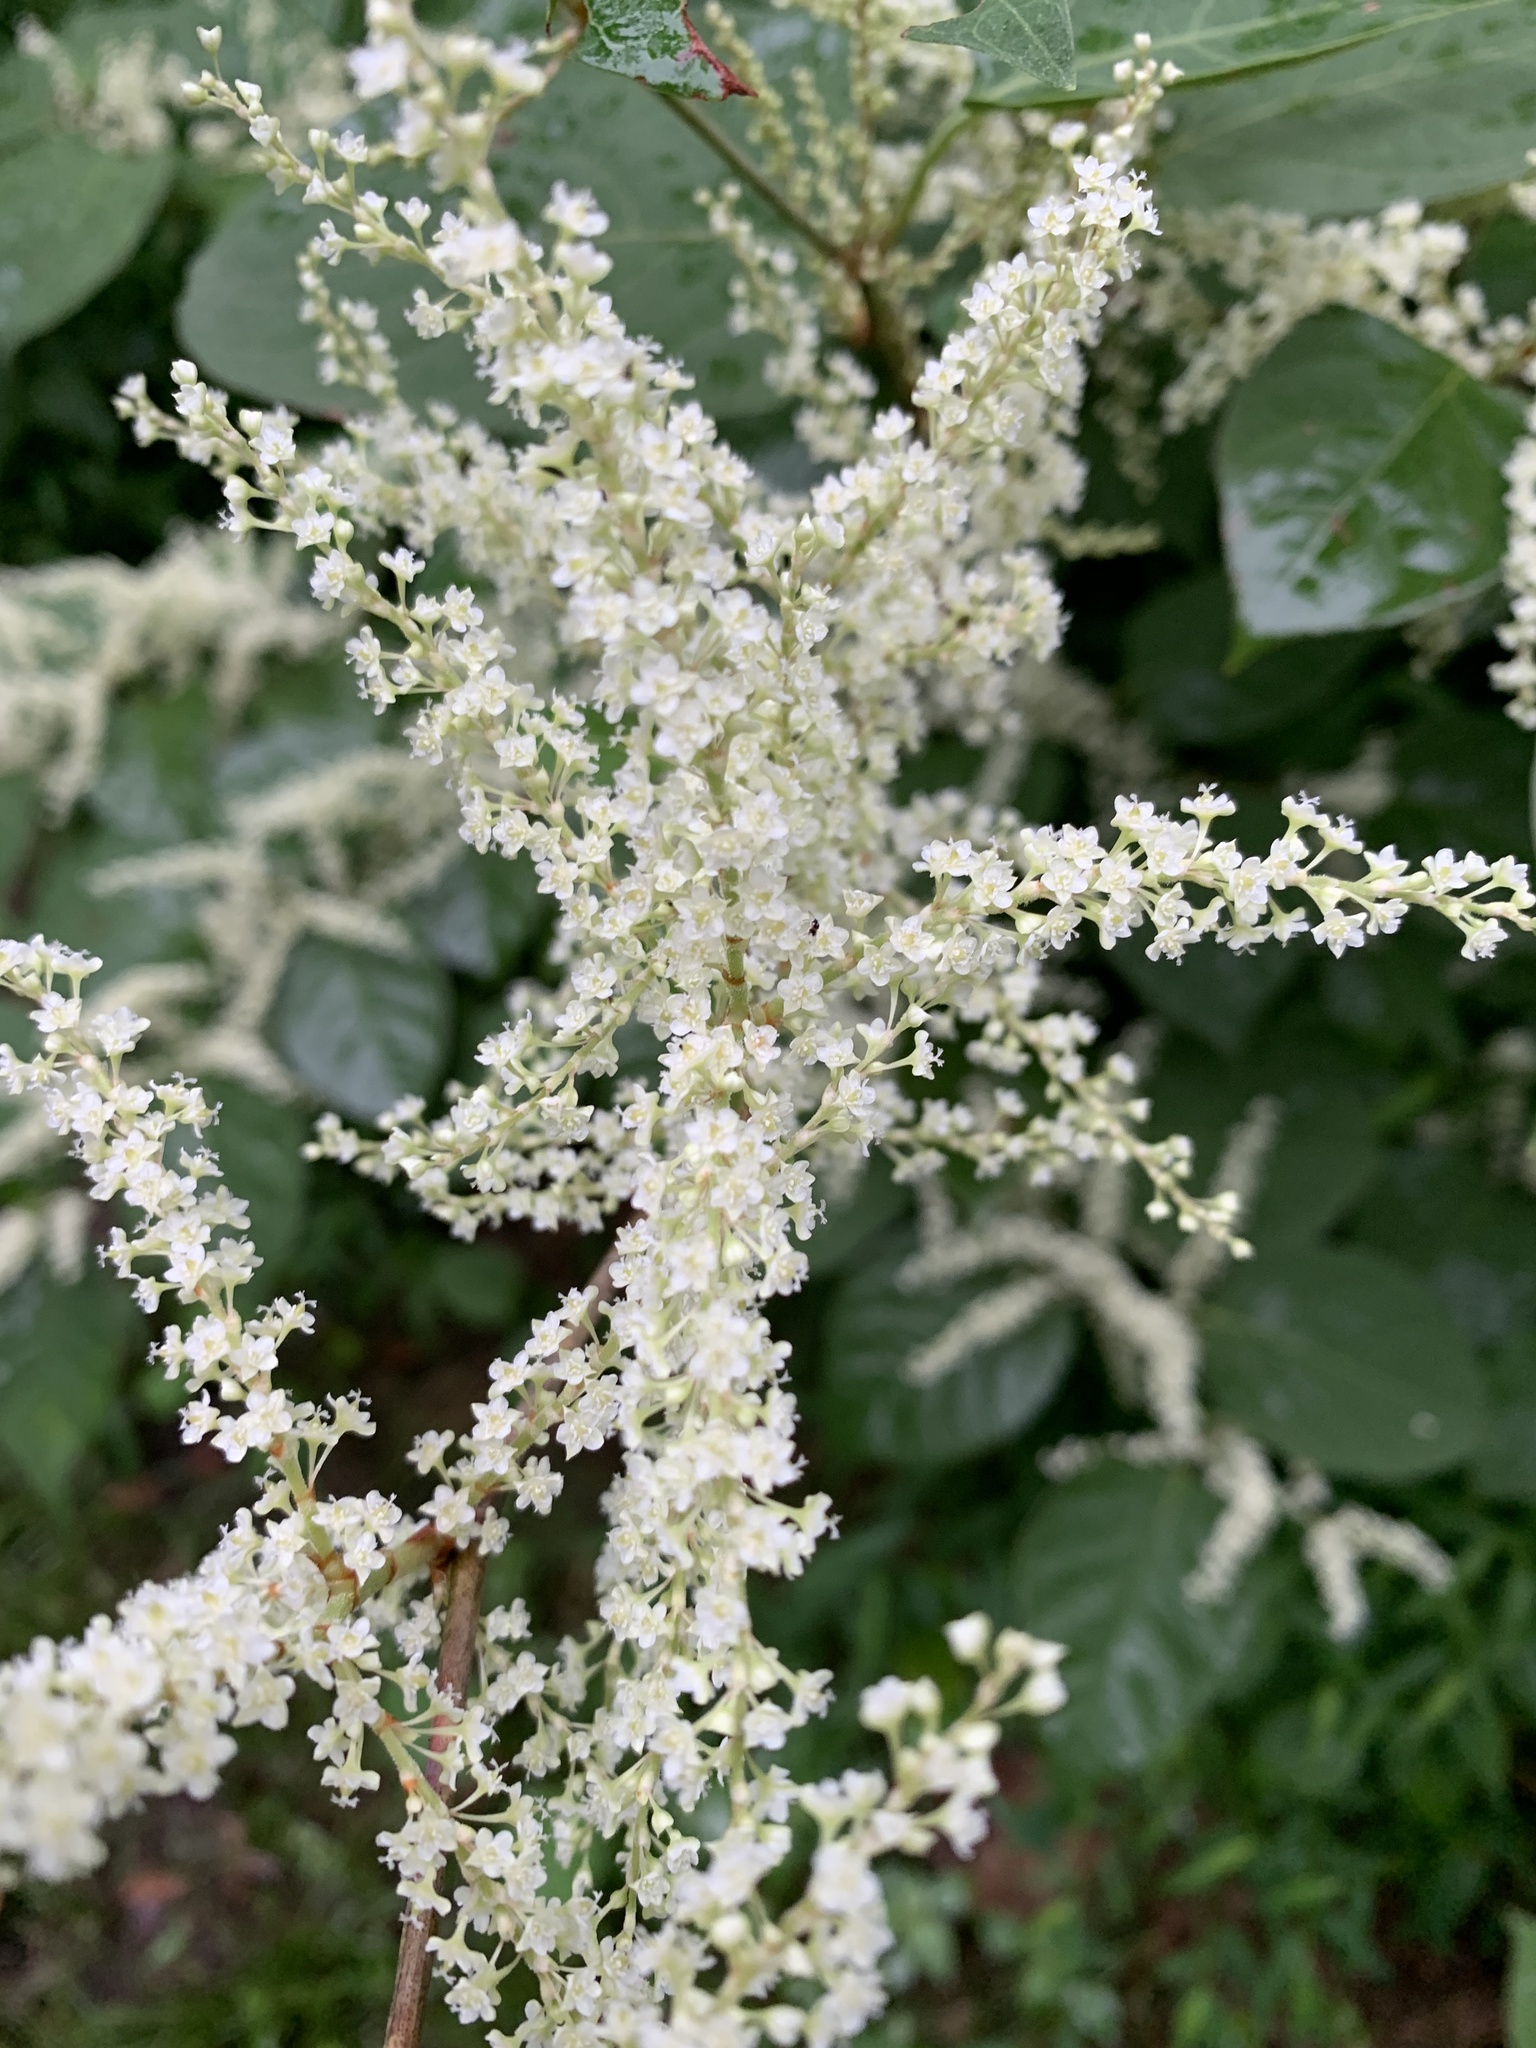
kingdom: Plantae
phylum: Tracheophyta
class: Magnoliopsida
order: Caryophyllales
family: Polygonaceae
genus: Reynoutria
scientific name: Reynoutria japonica
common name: Japanese knotweed
